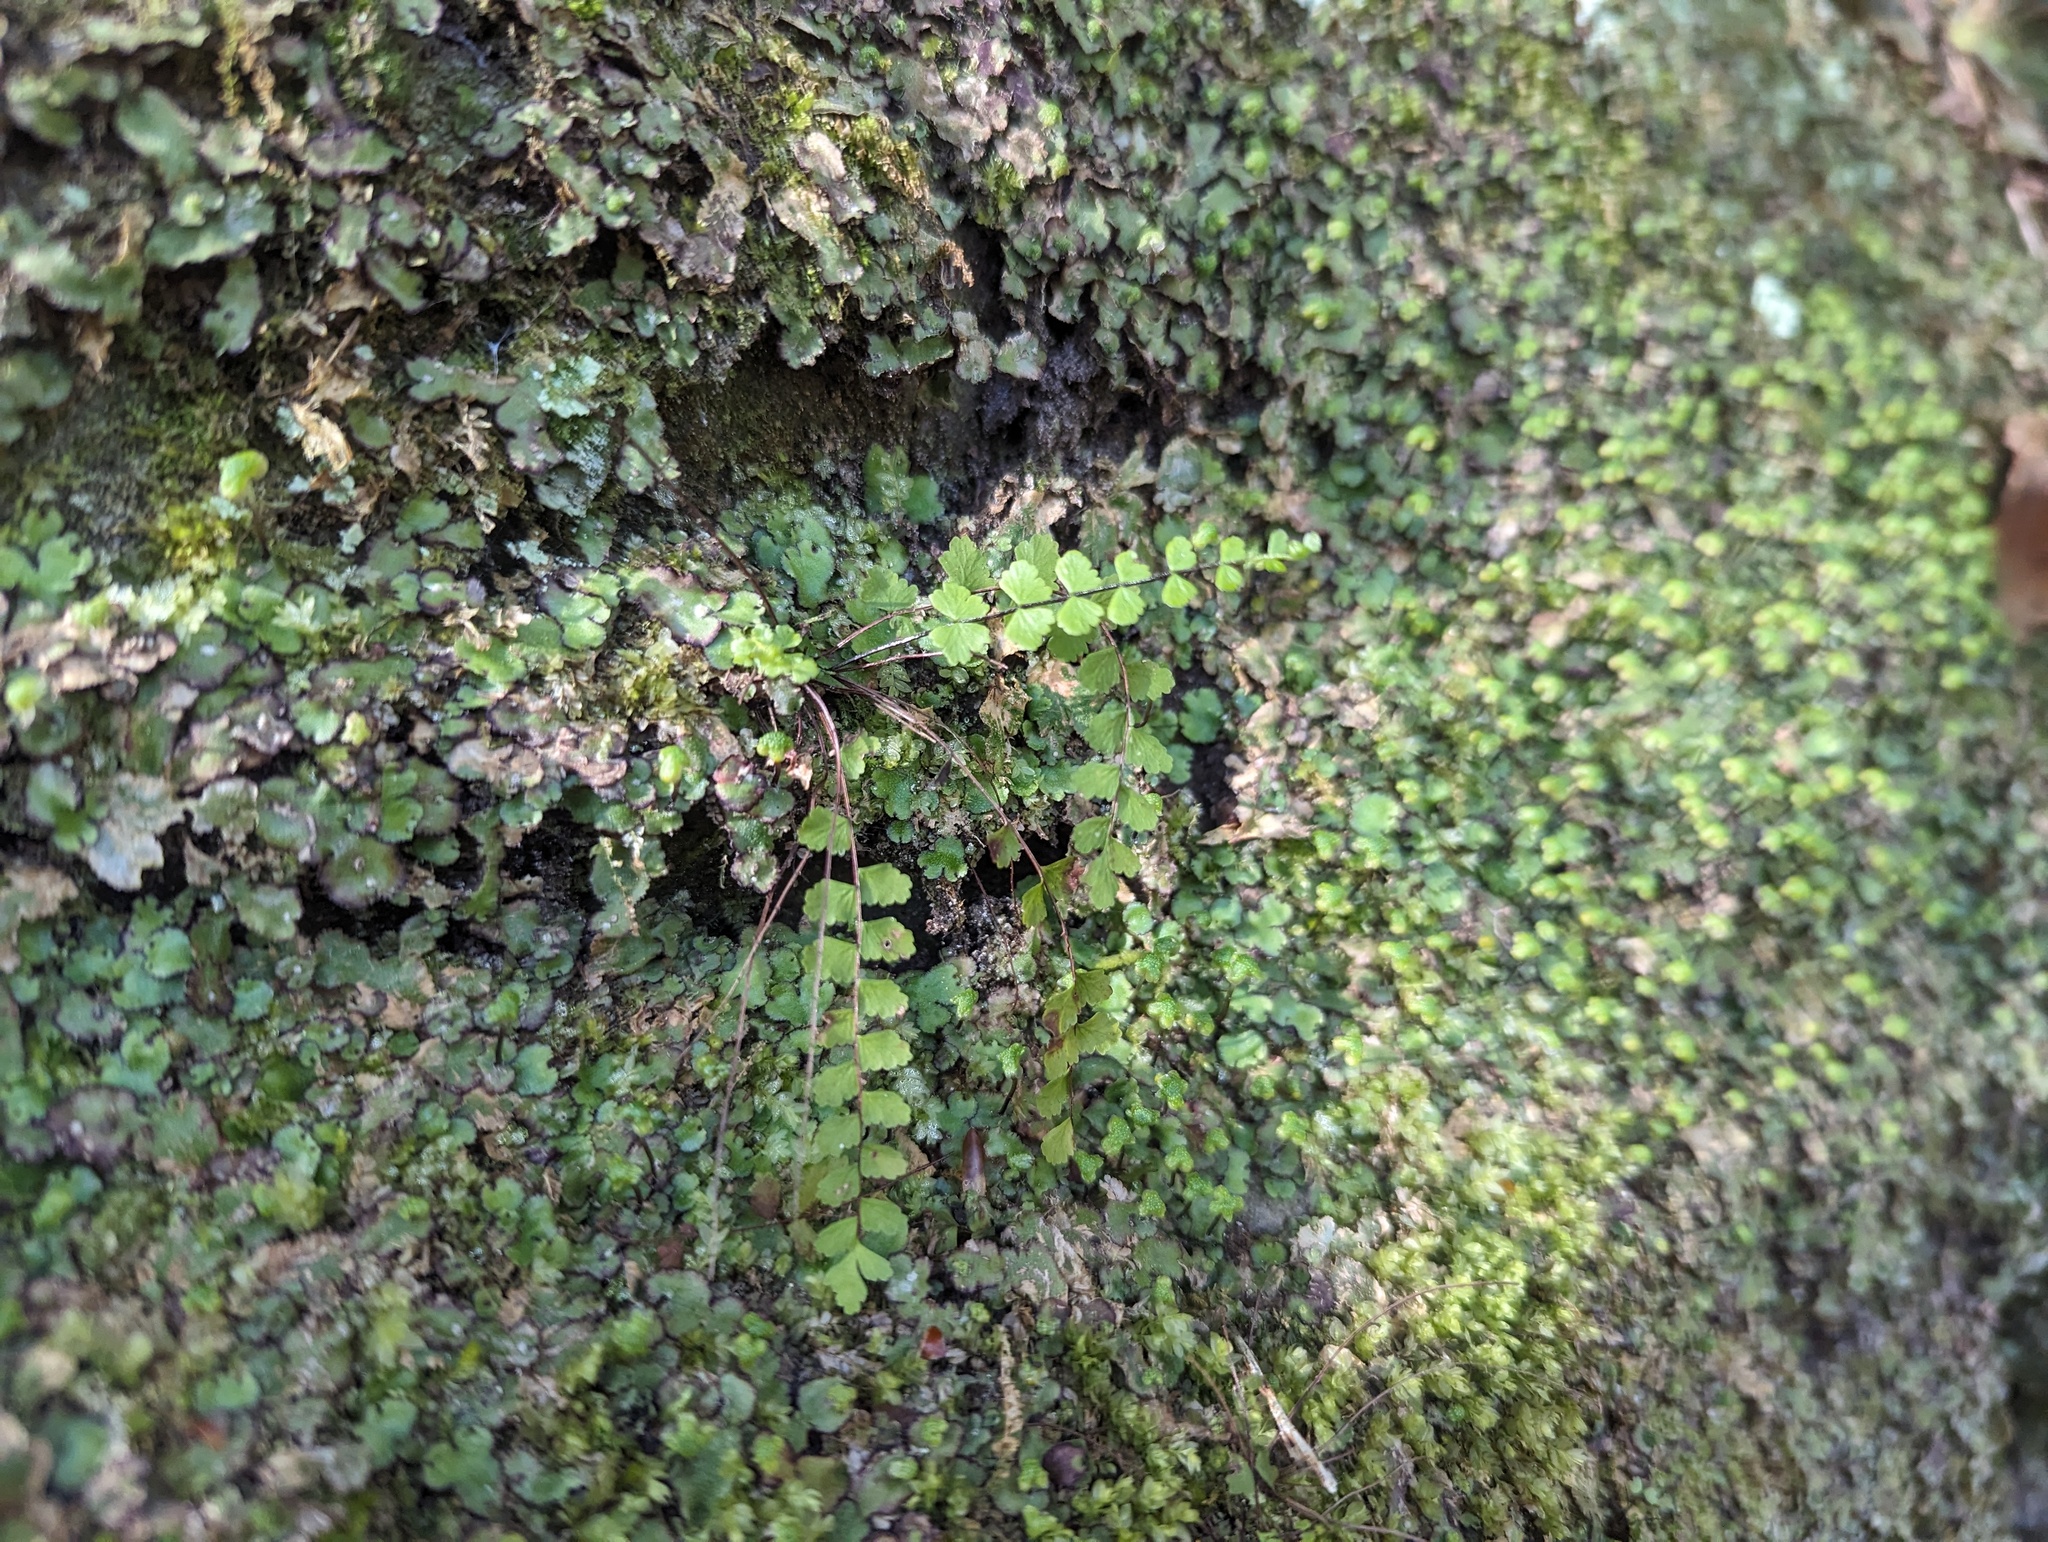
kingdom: Plantae
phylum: Tracheophyta
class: Polypodiopsida
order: Polypodiales
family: Aspleniaceae
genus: Asplenium
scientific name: Asplenium trichomanes
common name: Maidenhair spleenwort
